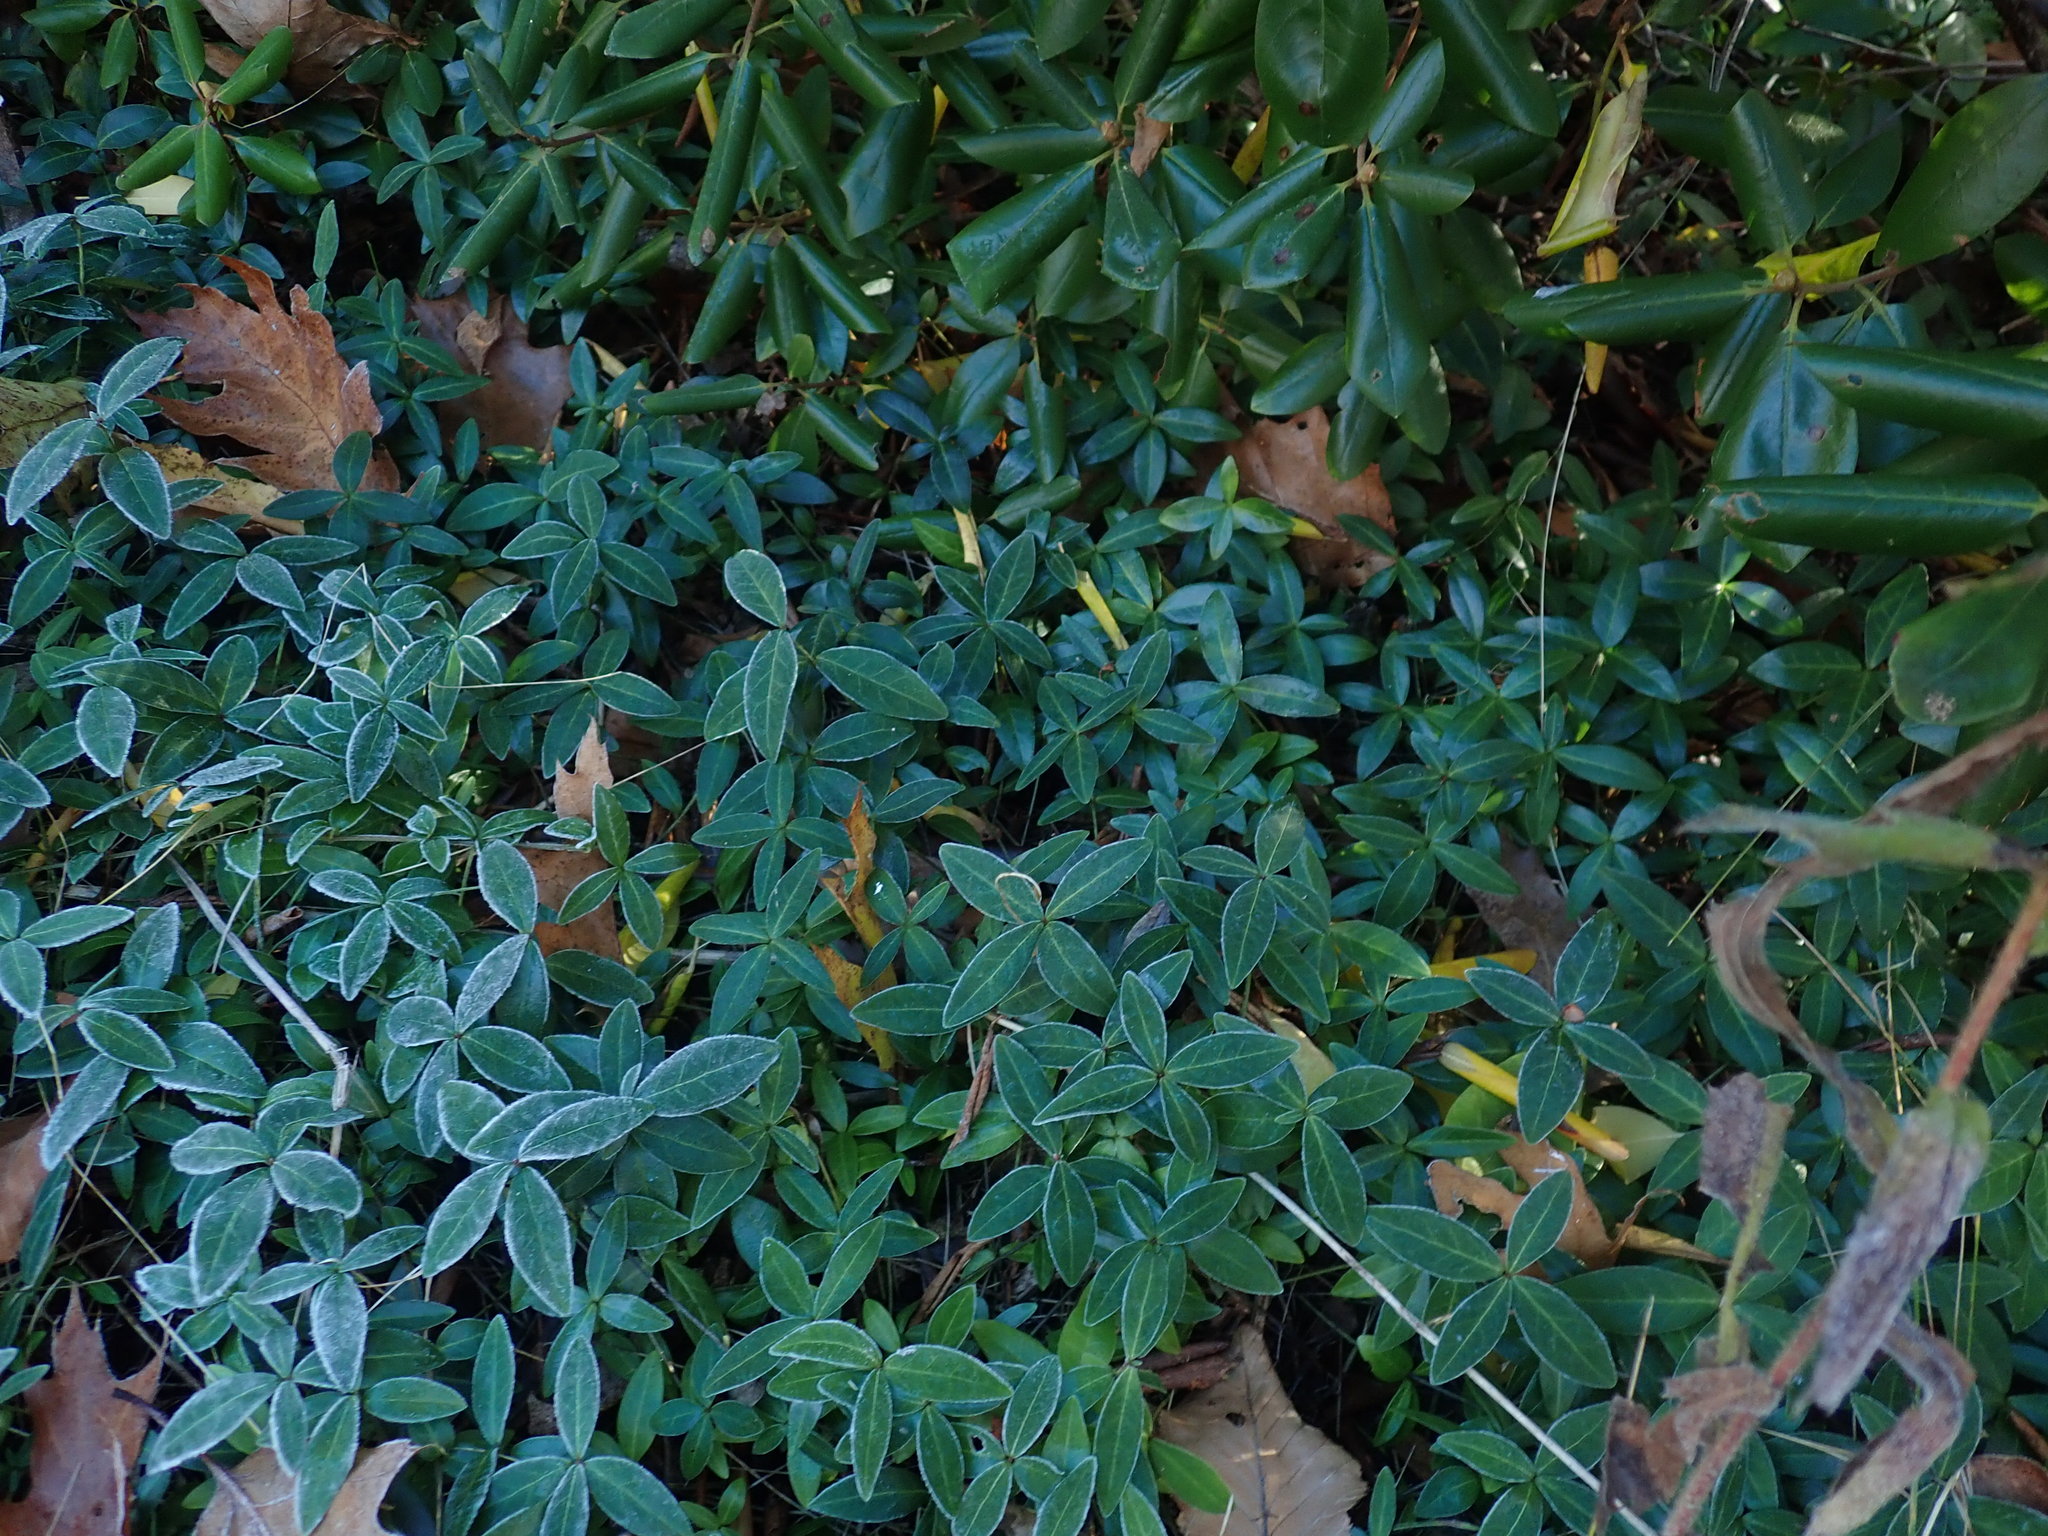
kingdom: Plantae
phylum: Tracheophyta
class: Magnoliopsida
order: Gentianales
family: Apocynaceae
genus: Vinca
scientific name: Vinca minor
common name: Lesser periwinkle
